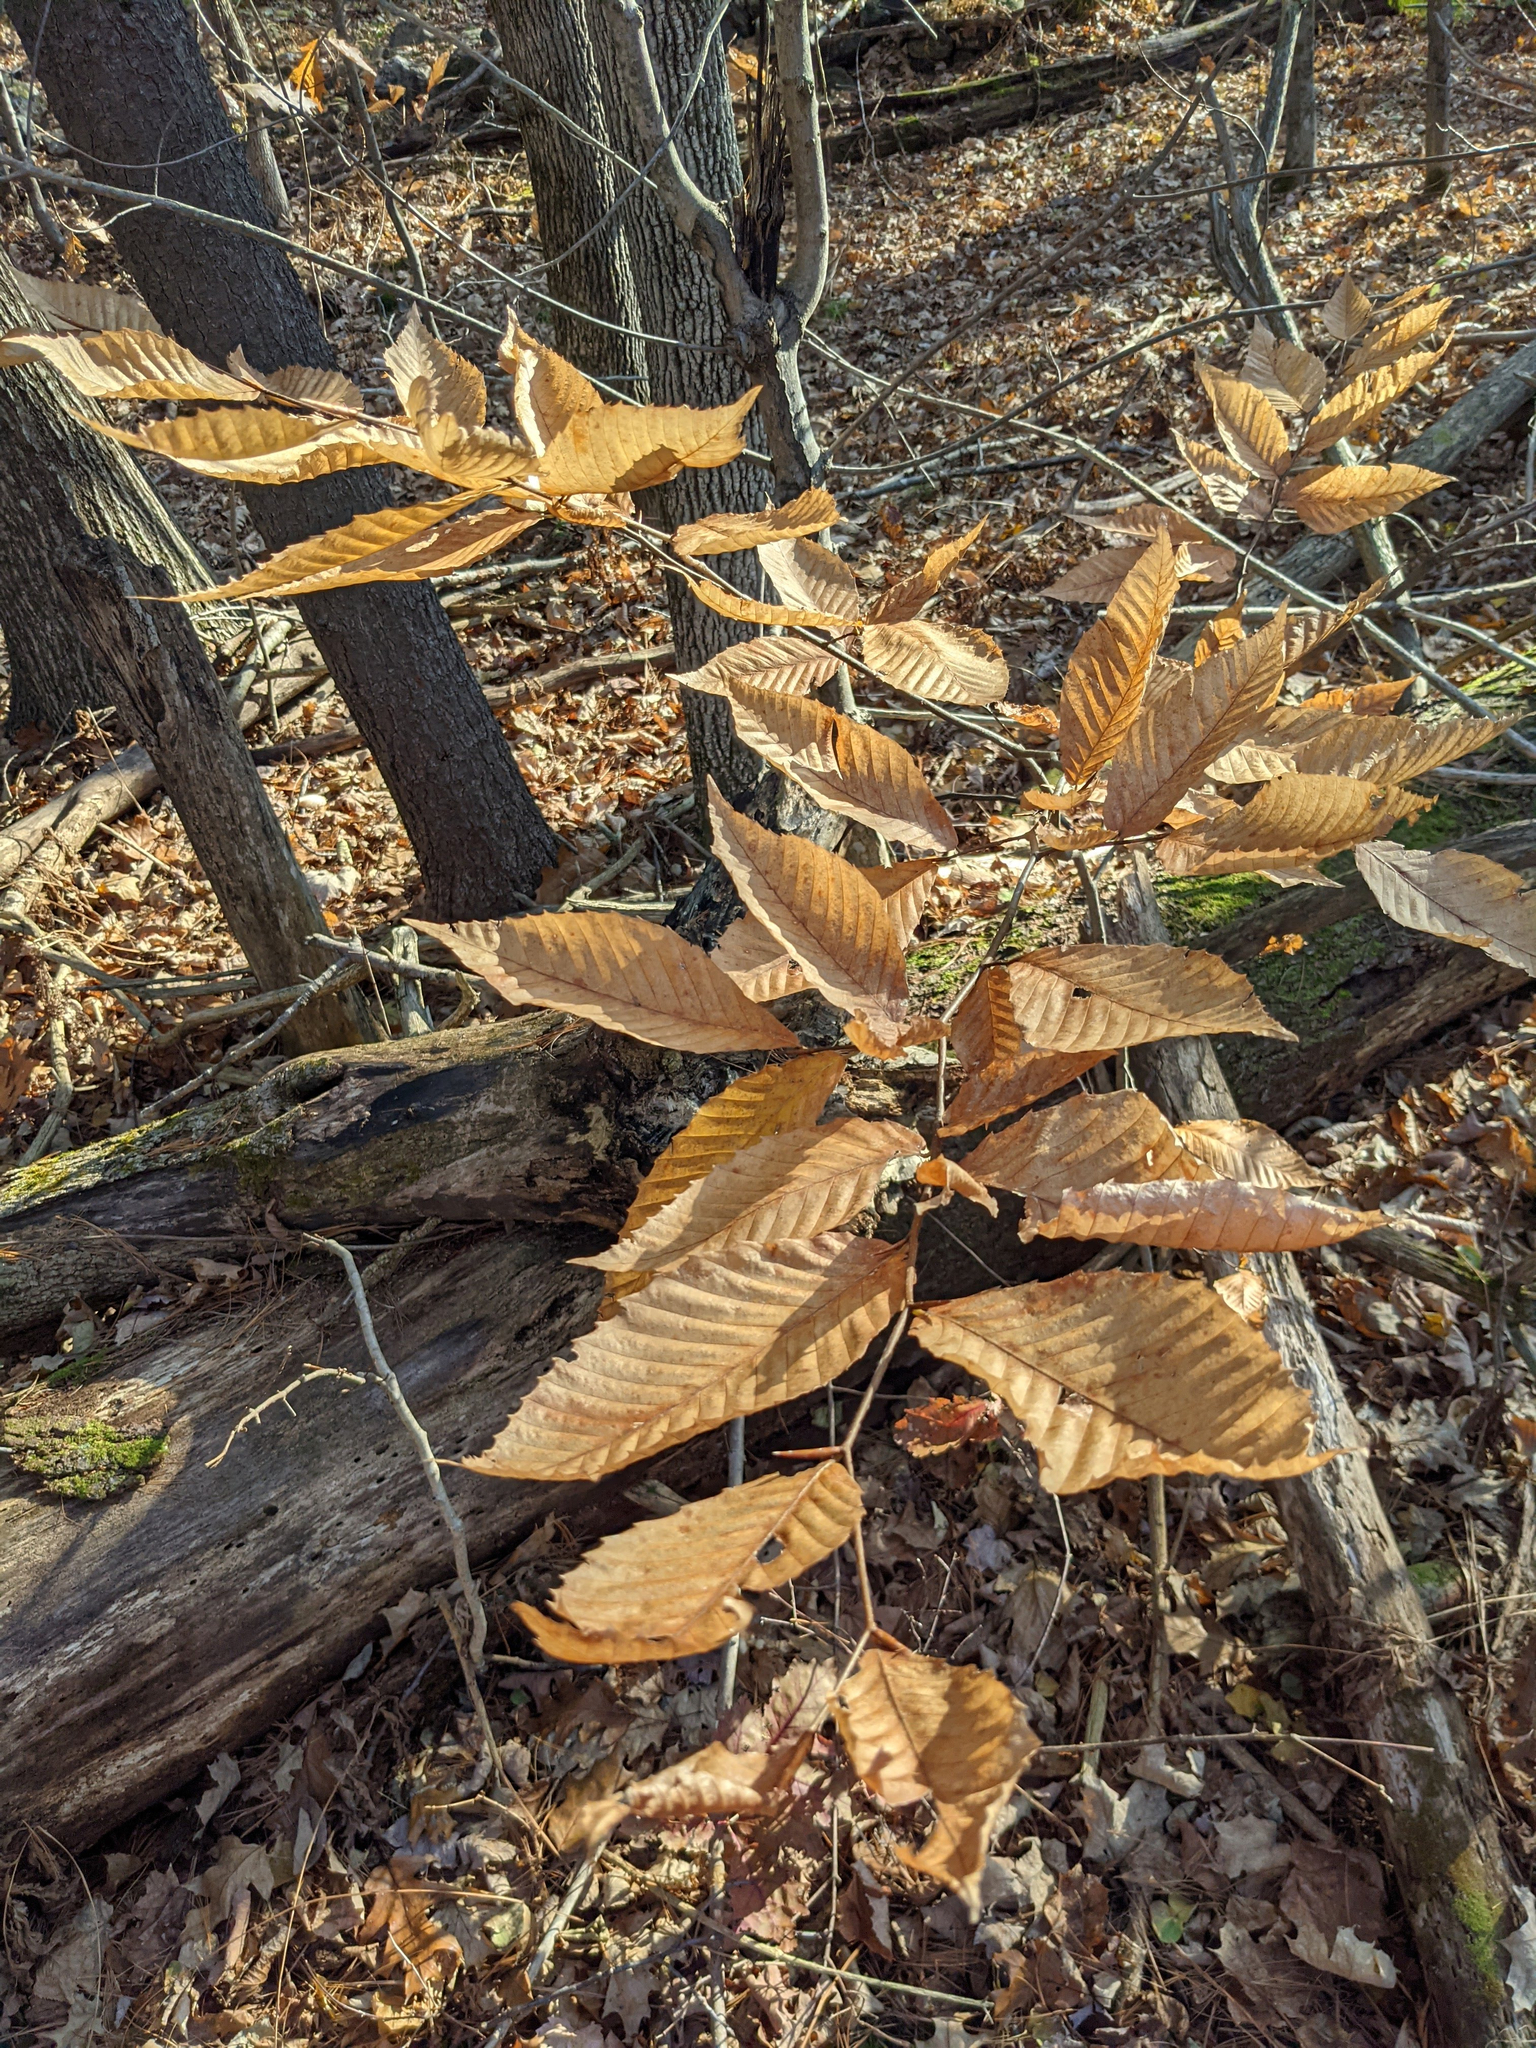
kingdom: Plantae
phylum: Tracheophyta
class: Magnoliopsida
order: Fagales
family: Fagaceae
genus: Fagus
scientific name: Fagus grandifolia
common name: American beech
